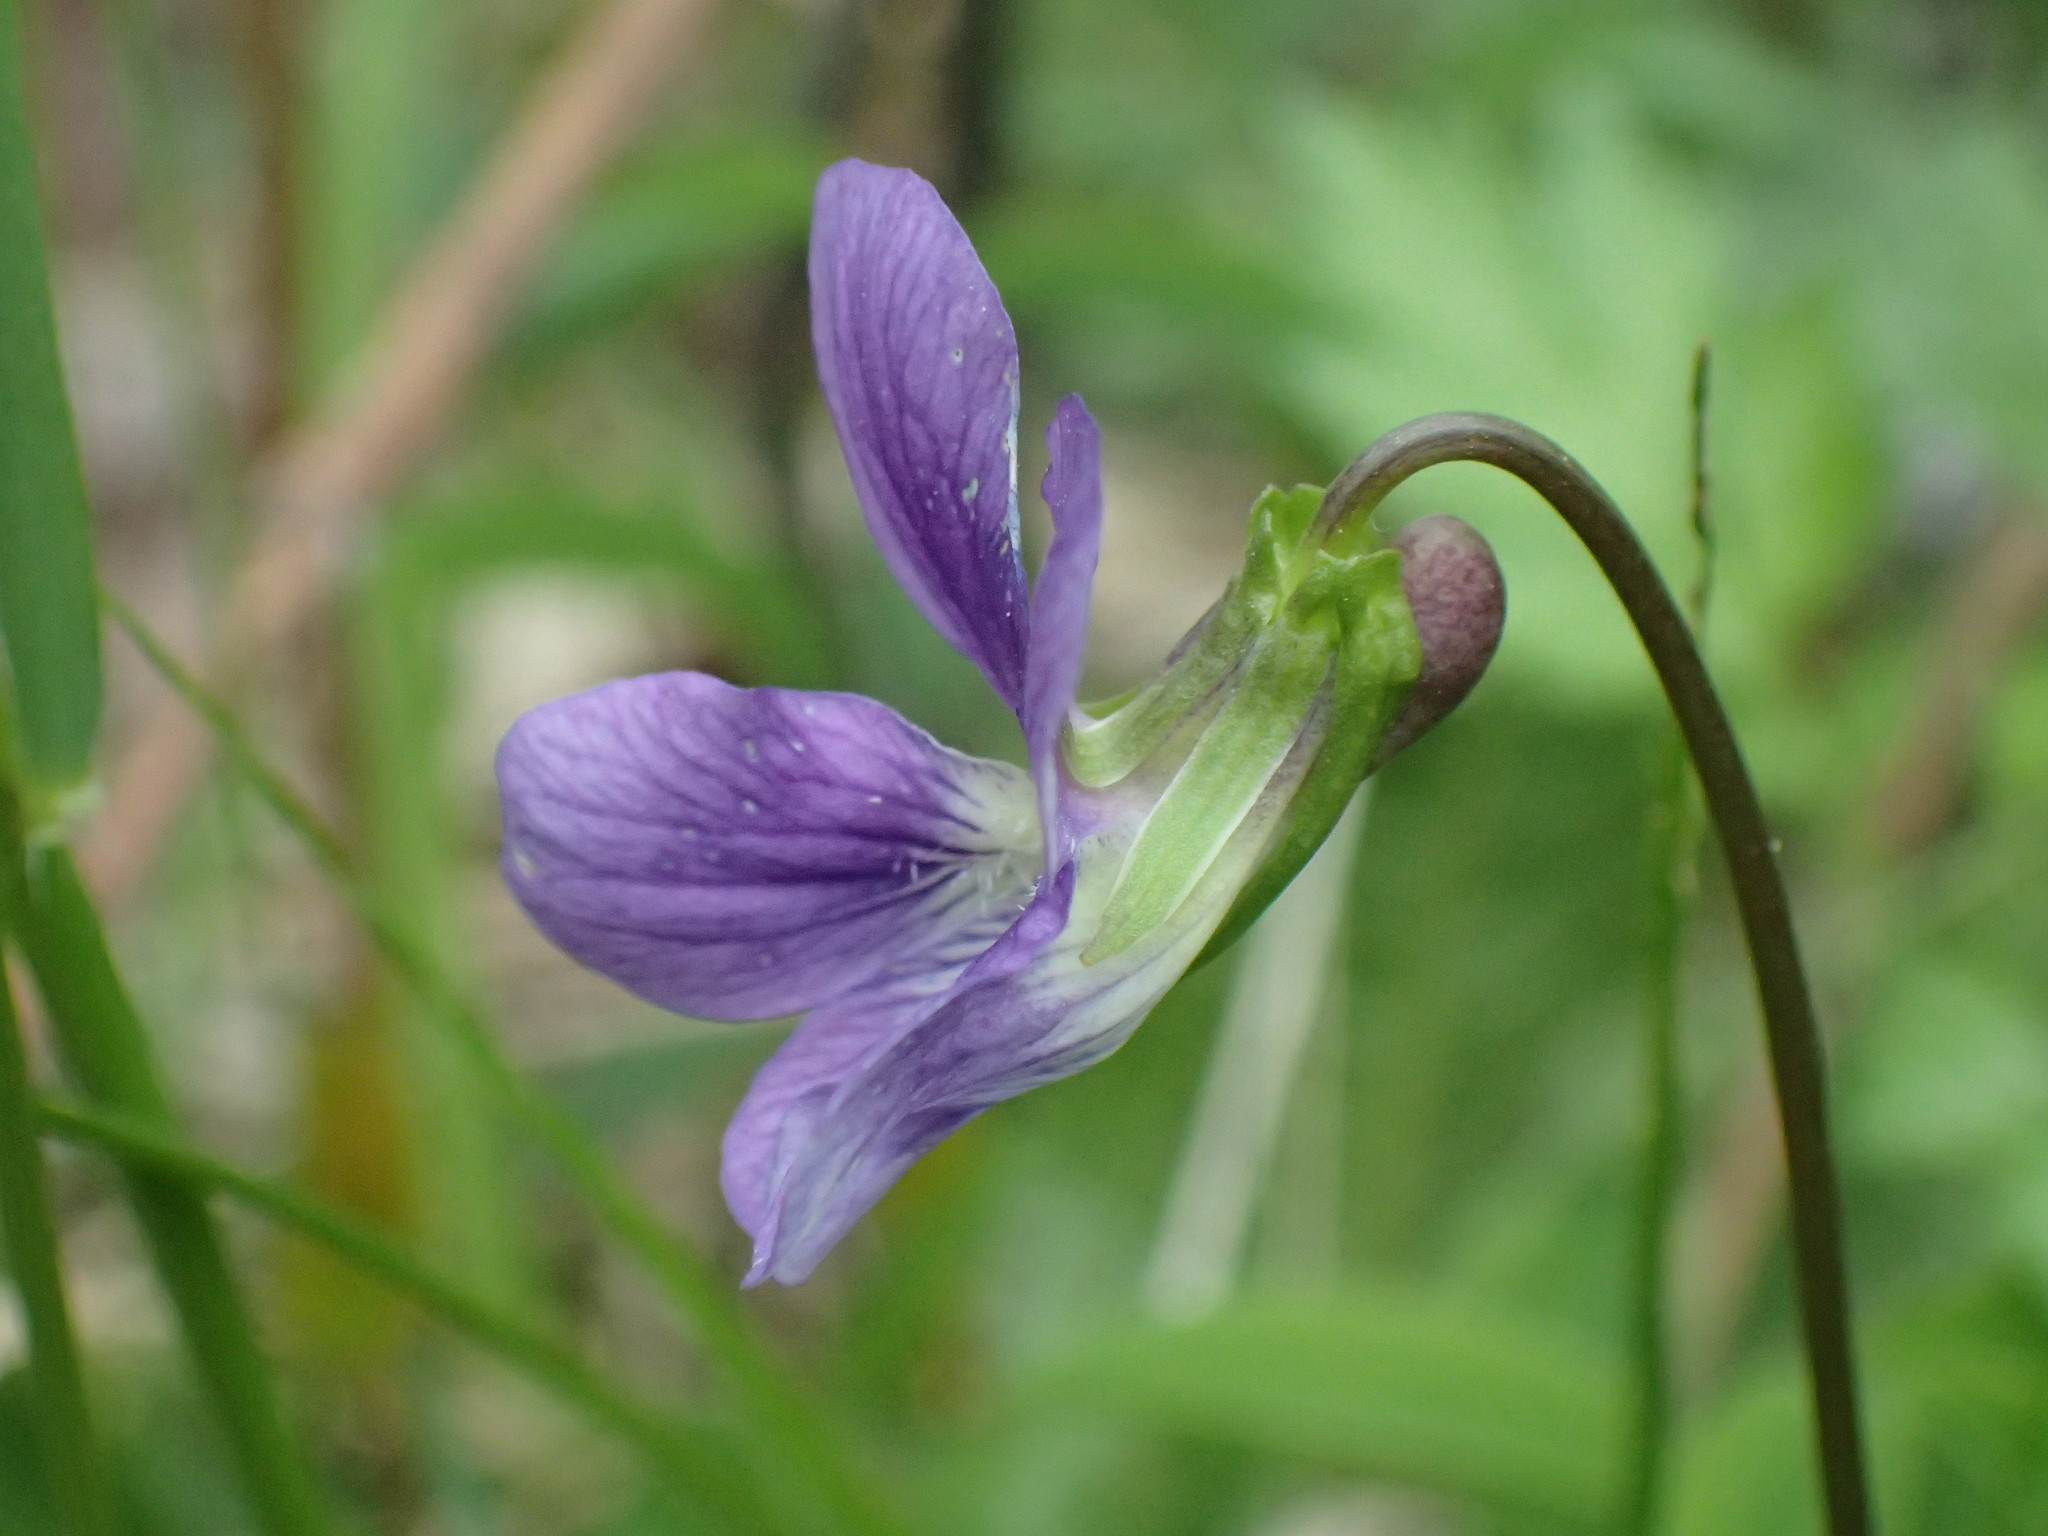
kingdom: Plantae
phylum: Tracheophyta
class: Magnoliopsida
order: Malpighiales
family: Violaceae
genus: Viola
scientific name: Viola pectinata
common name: Pectinate-leaved violet
